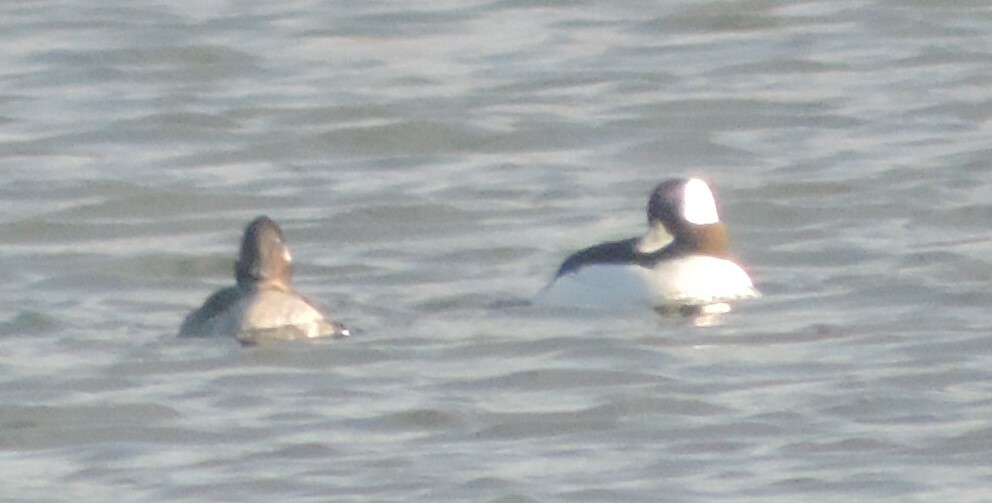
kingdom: Animalia
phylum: Chordata
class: Aves
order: Anseriformes
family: Anatidae
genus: Bucephala
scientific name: Bucephala albeola
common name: Bufflehead
